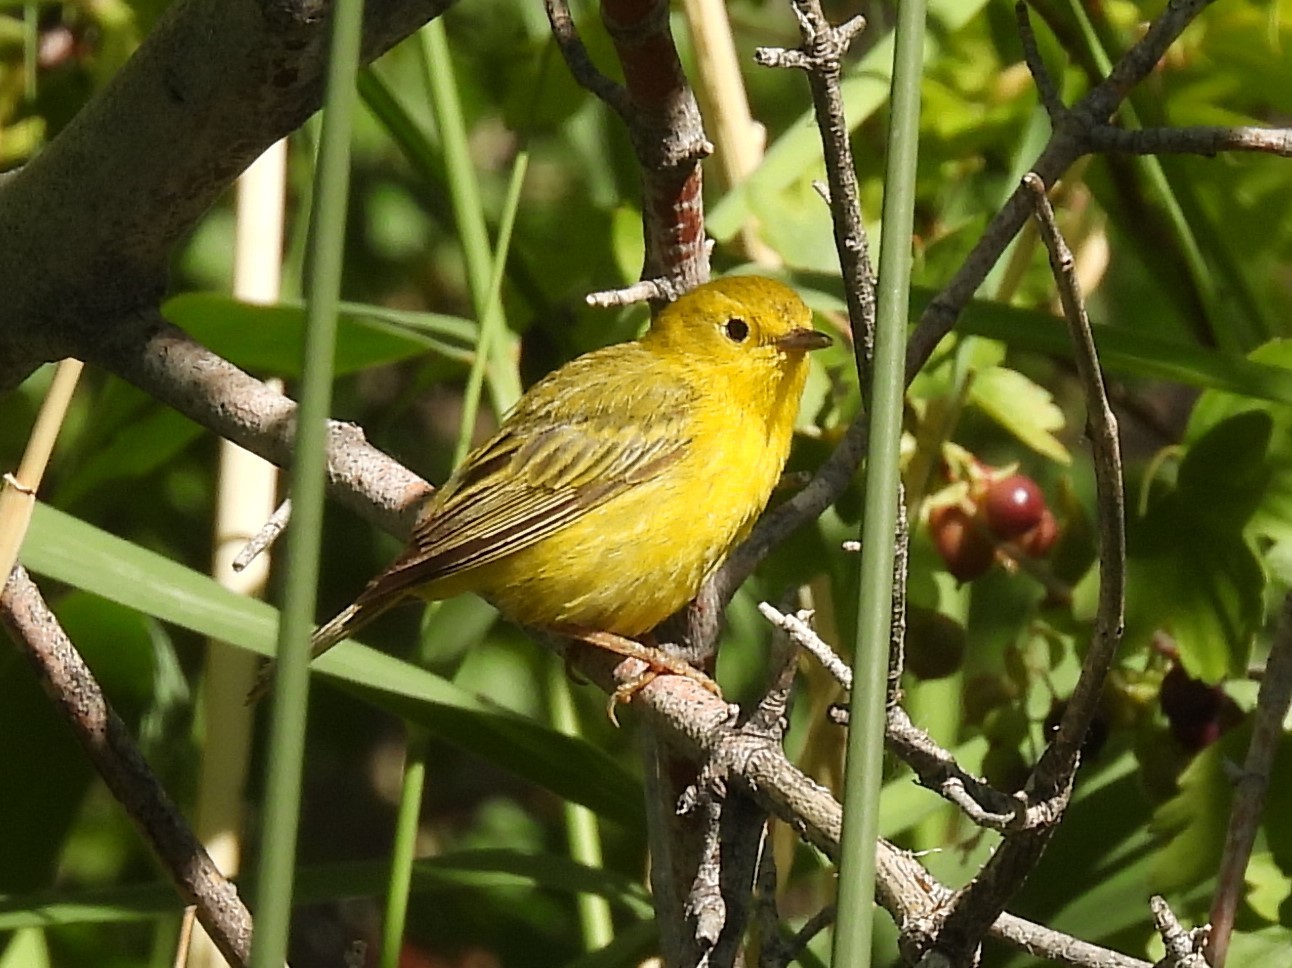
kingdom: Animalia
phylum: Chordata
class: Aves
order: Passeriformes
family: Parulidae
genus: Setophaga
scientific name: Setophaga petechia
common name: Yellow warbler
